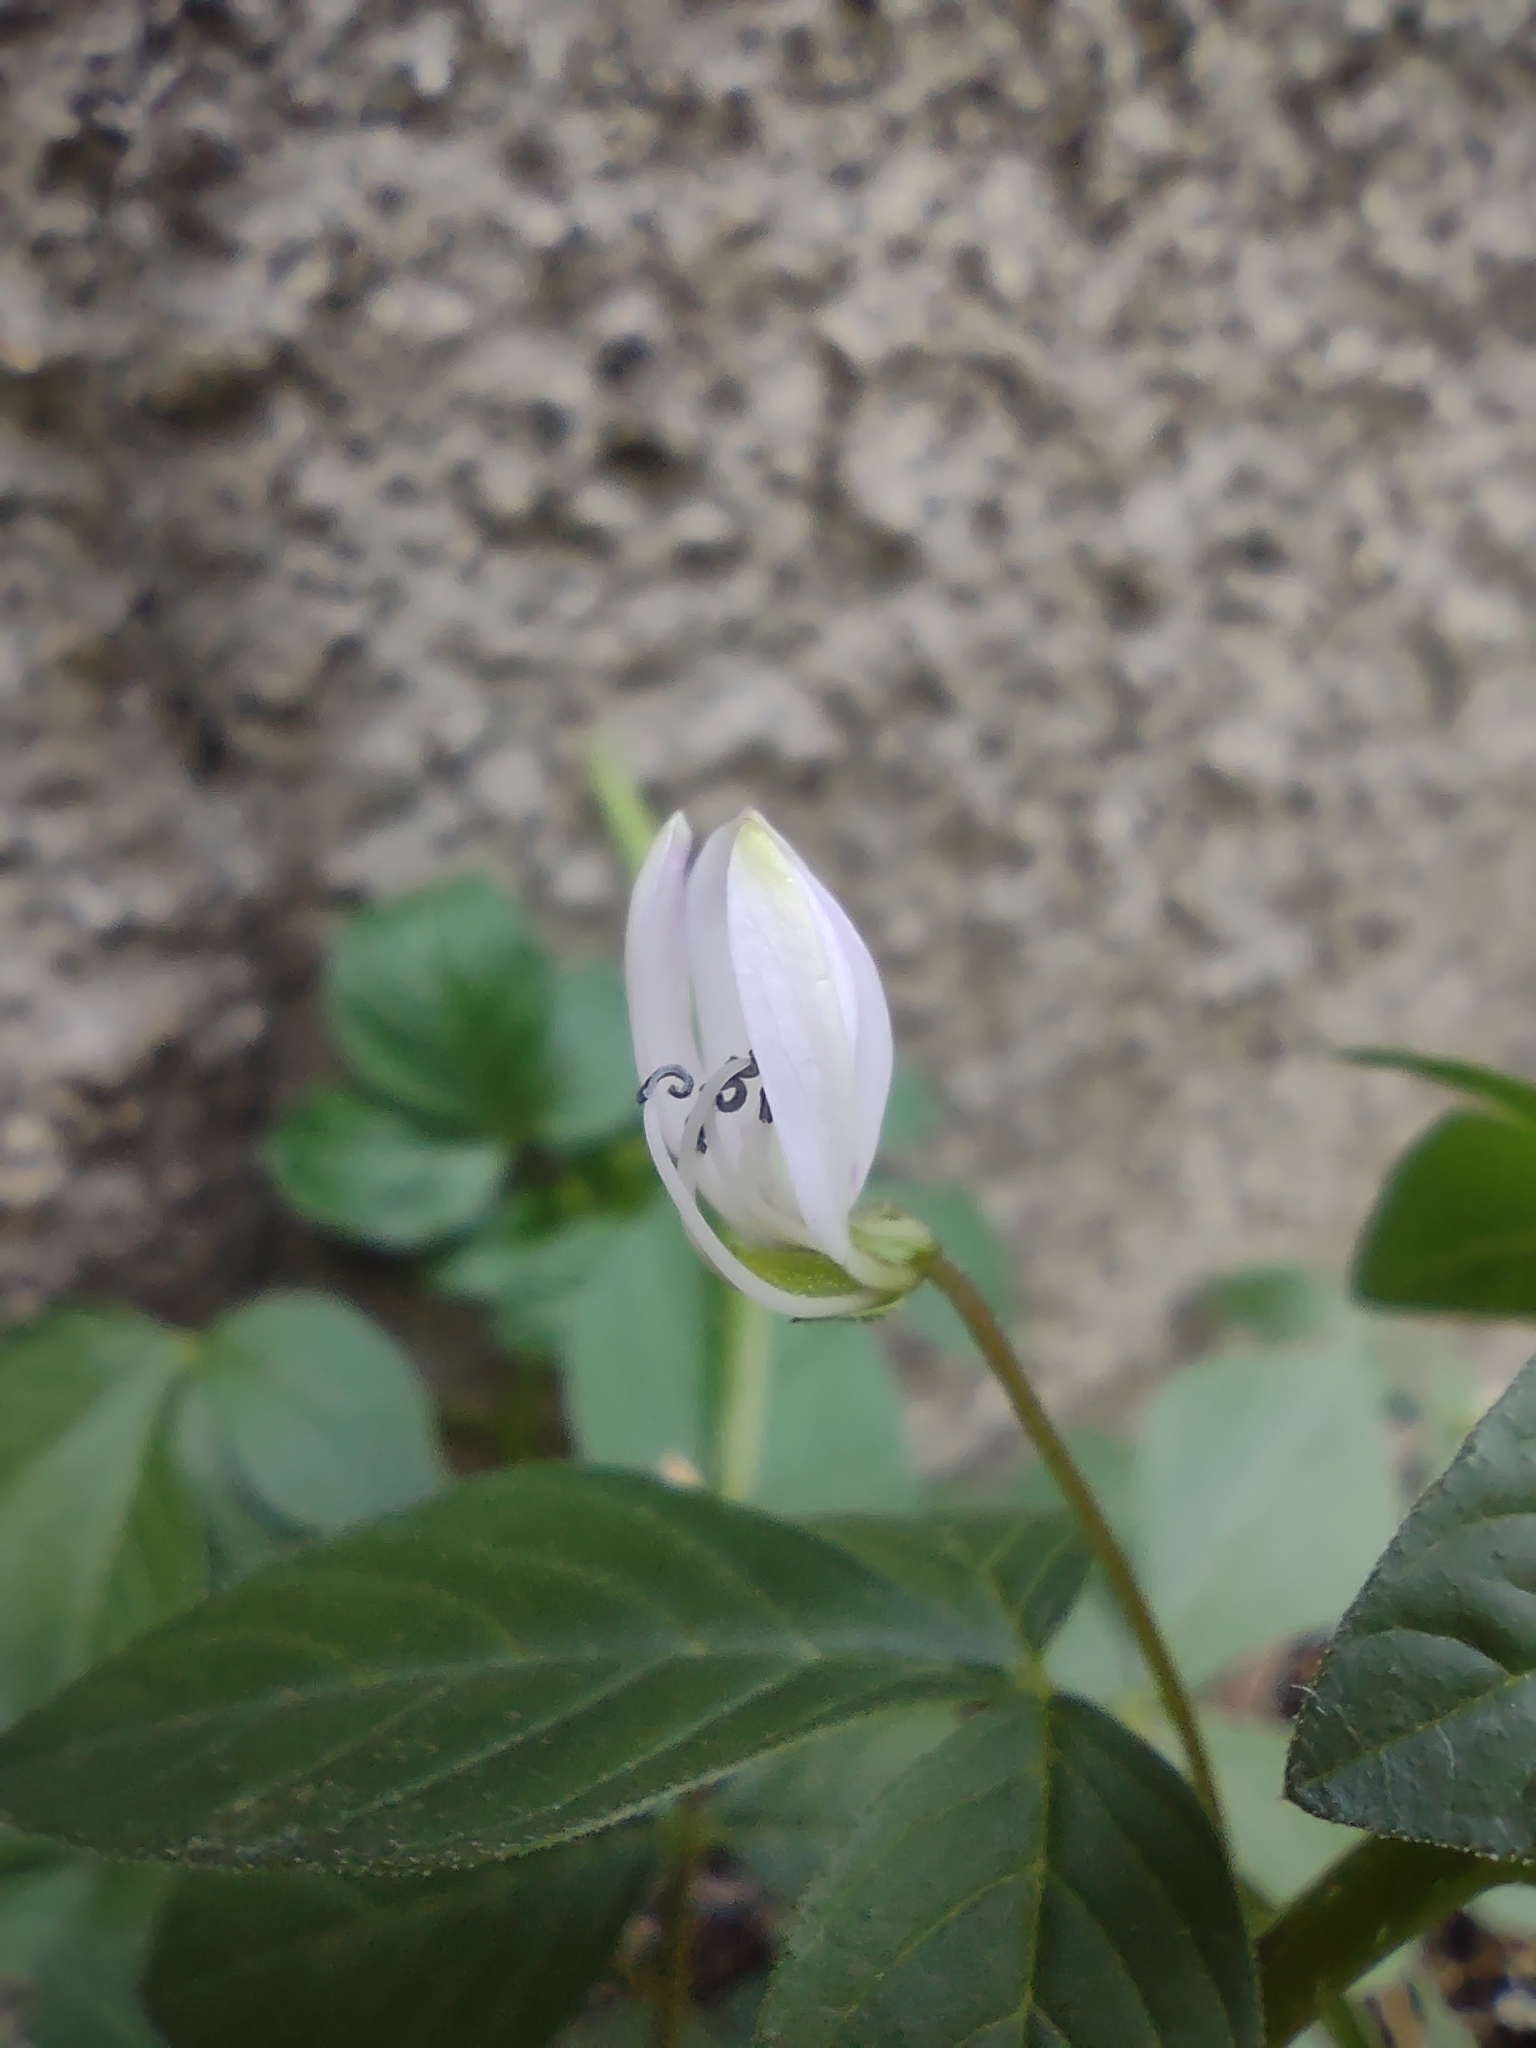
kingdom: Plantae
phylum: Tracheophyta
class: Magnoliopsida
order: Brassicales
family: Cleomaceae
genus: Sieruela
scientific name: Sieruela rutidosperma
